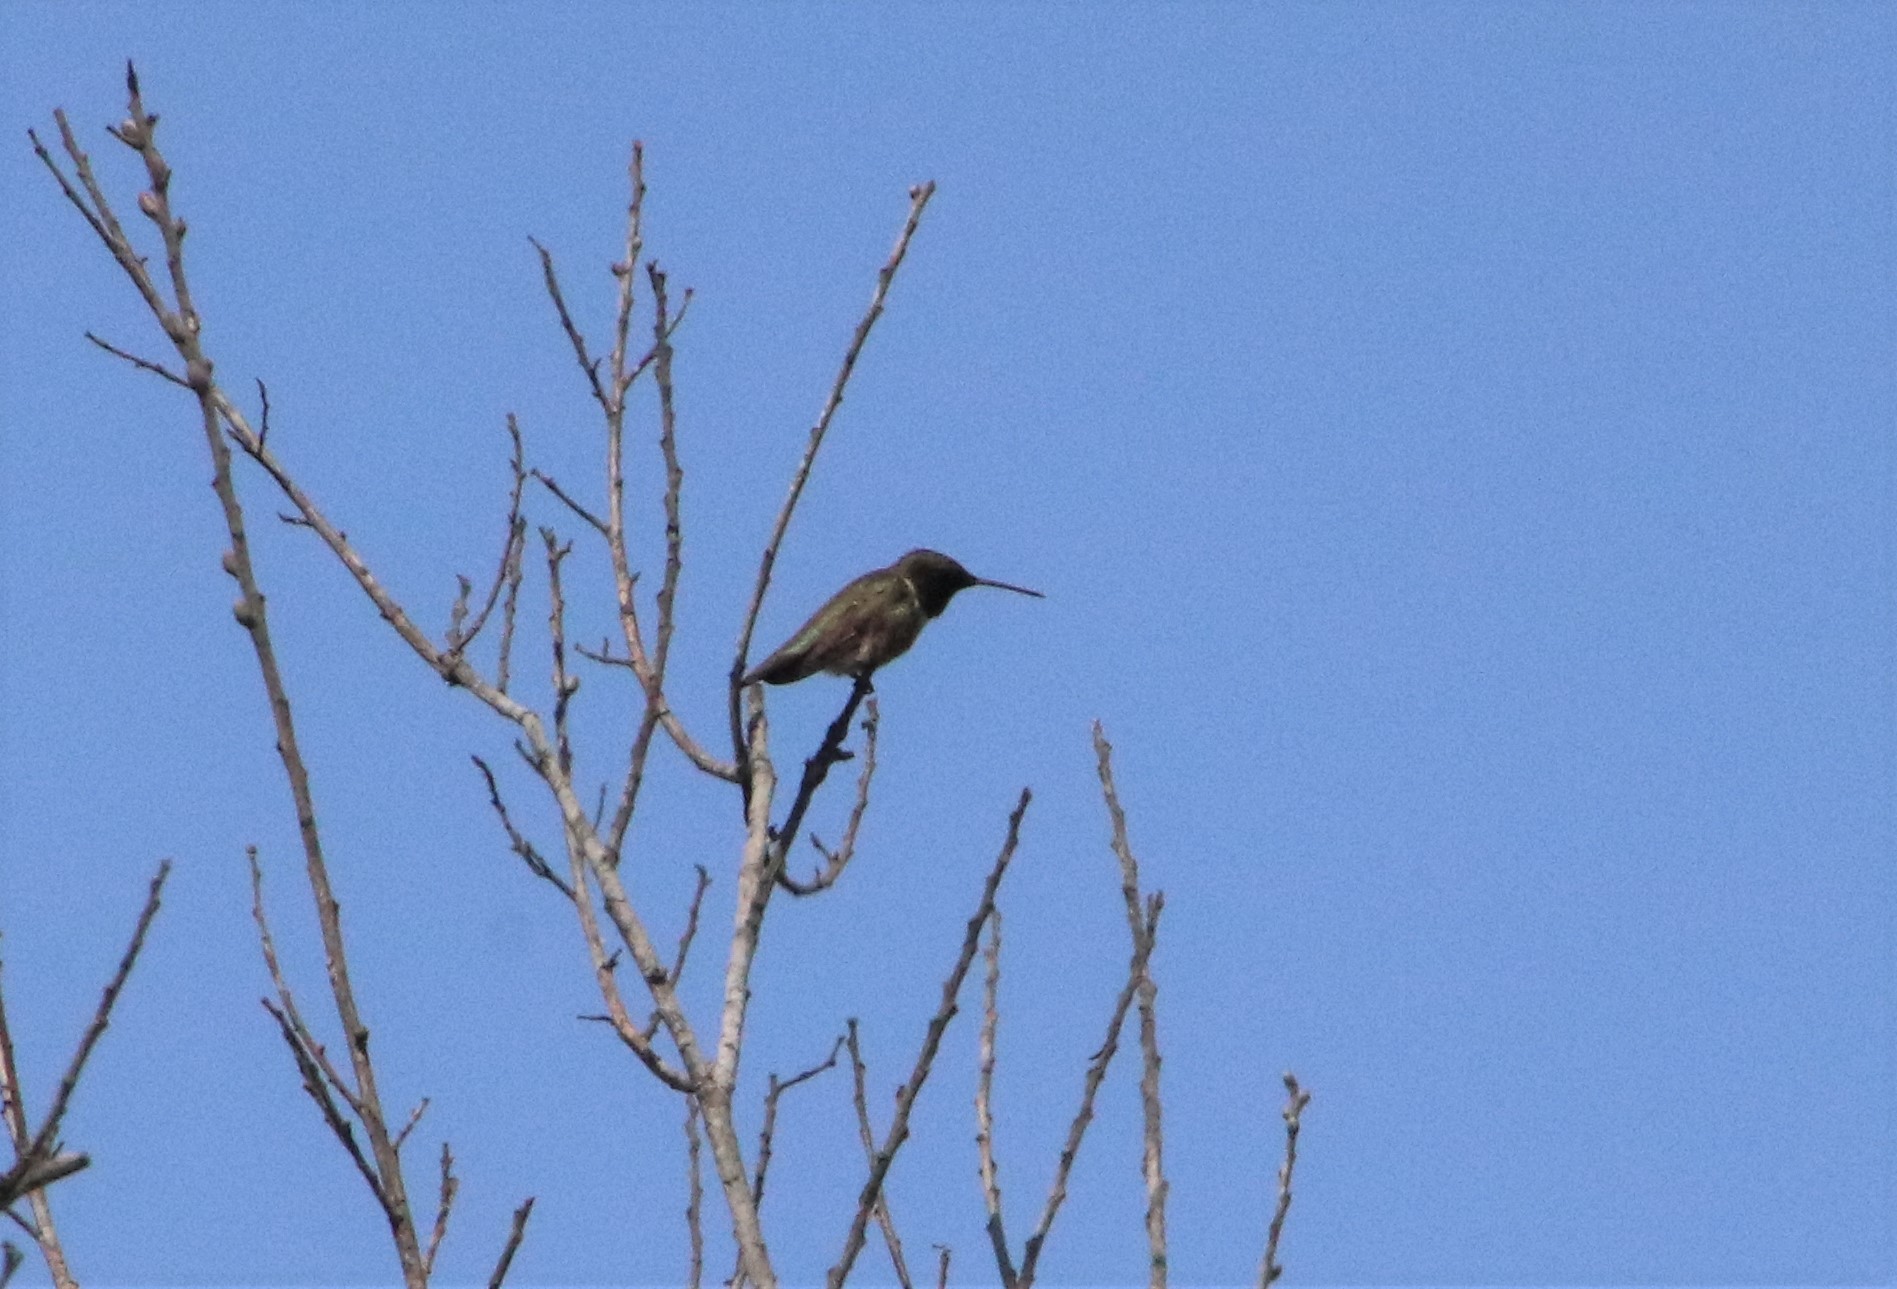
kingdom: Animalia
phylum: Chordata
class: Aves
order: Apodiformes
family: Trochilidae
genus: Archilochus
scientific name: Archilochus alexandri
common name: Black-chinned hummingbird
